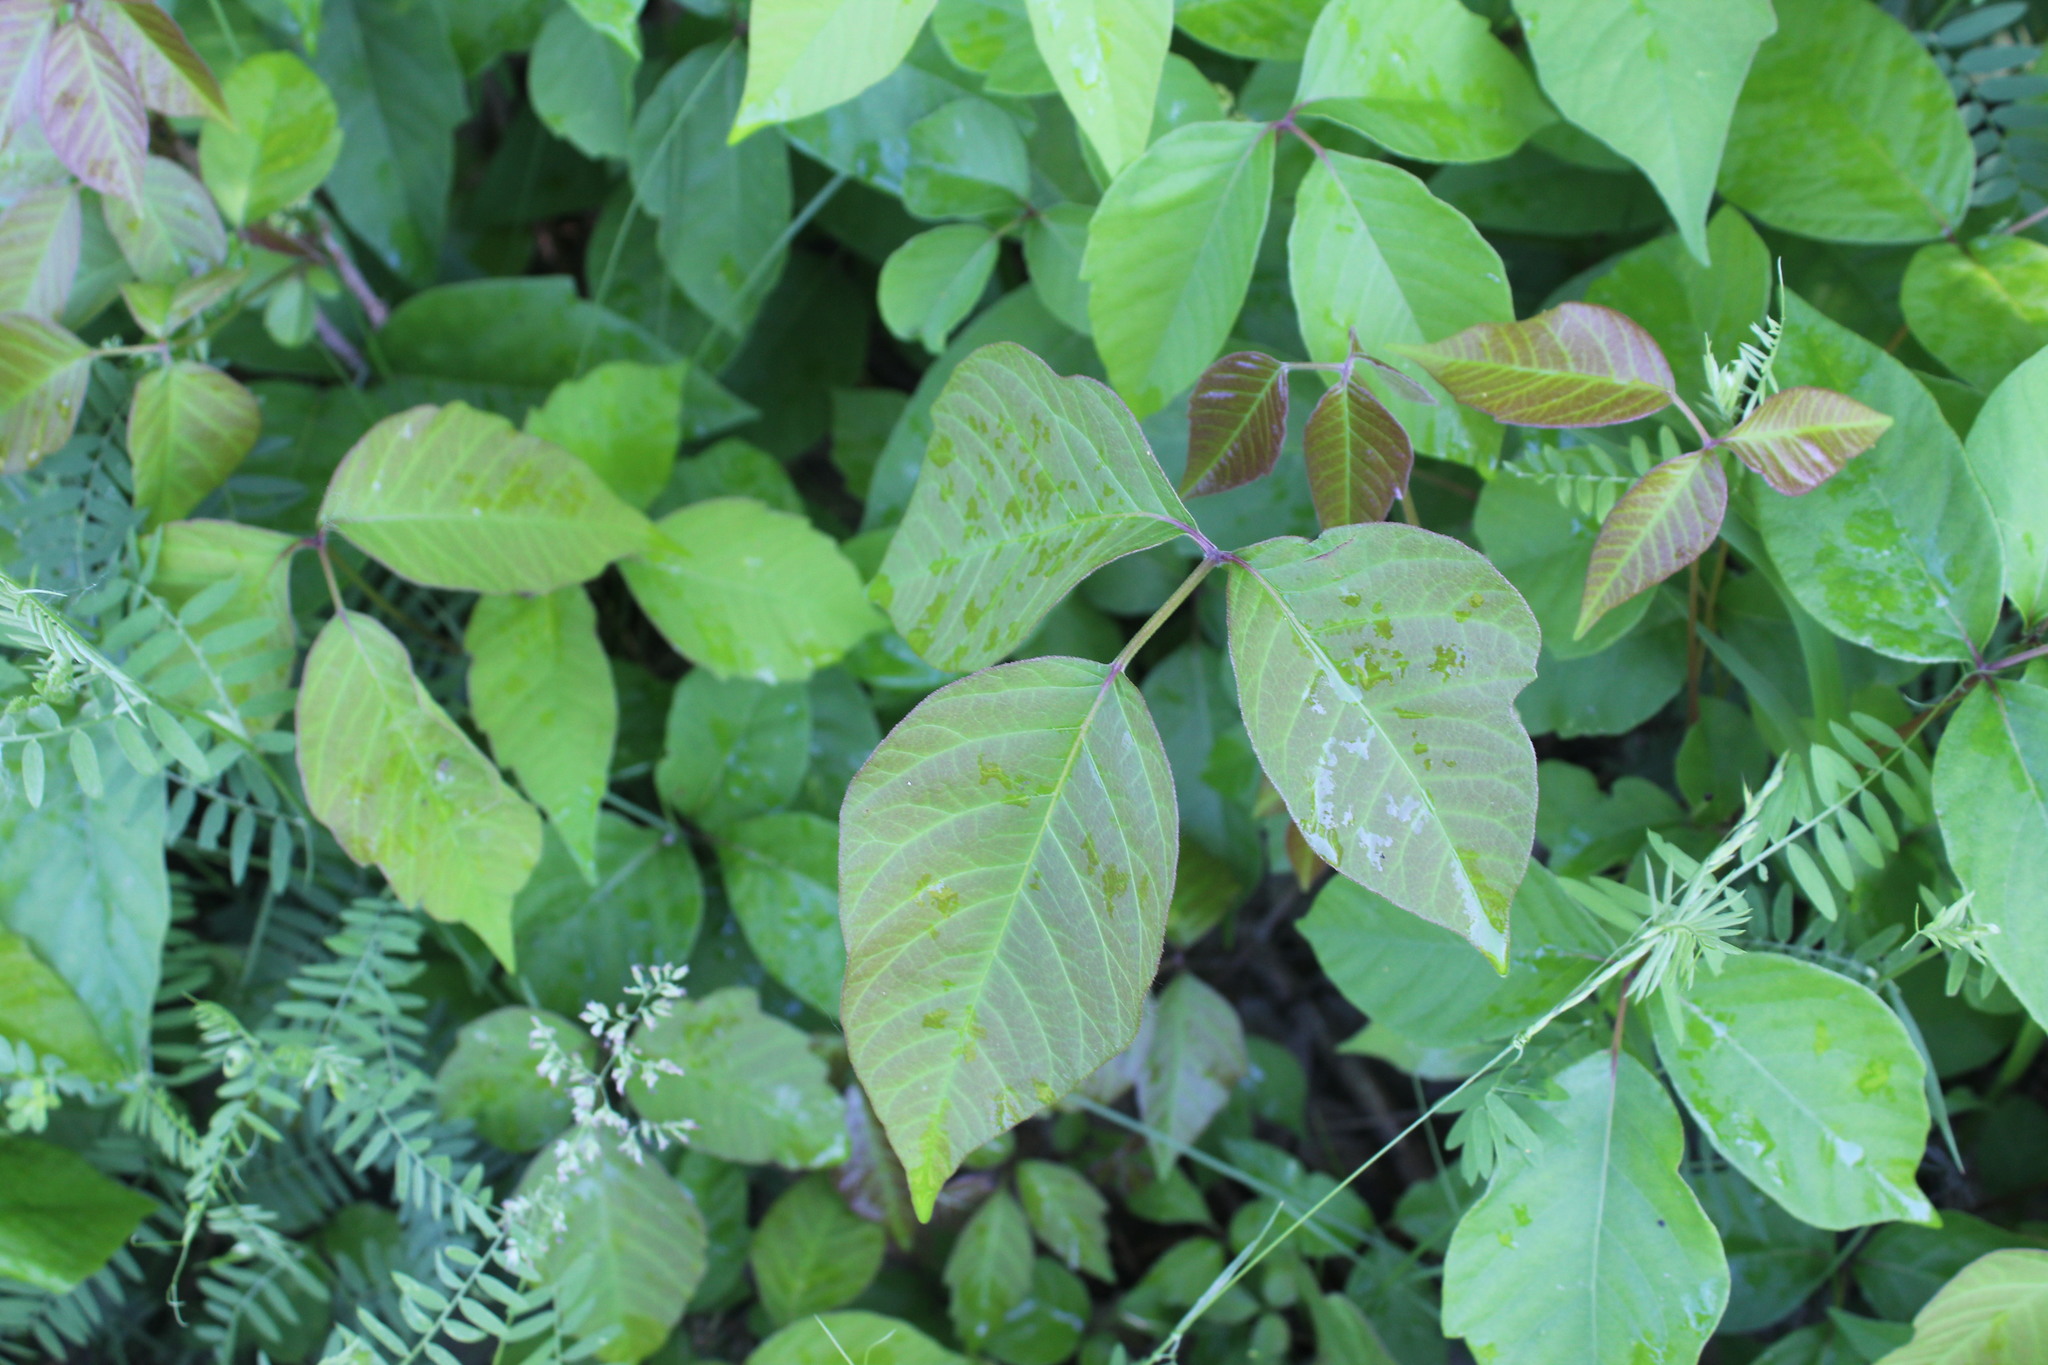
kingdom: Plantae
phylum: Tracheophyta
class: Magnoliopsida
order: Sapindales
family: Anacardiaceae
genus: Toxicodendron
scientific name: Toxicodendron radicans
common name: Poison ivy
